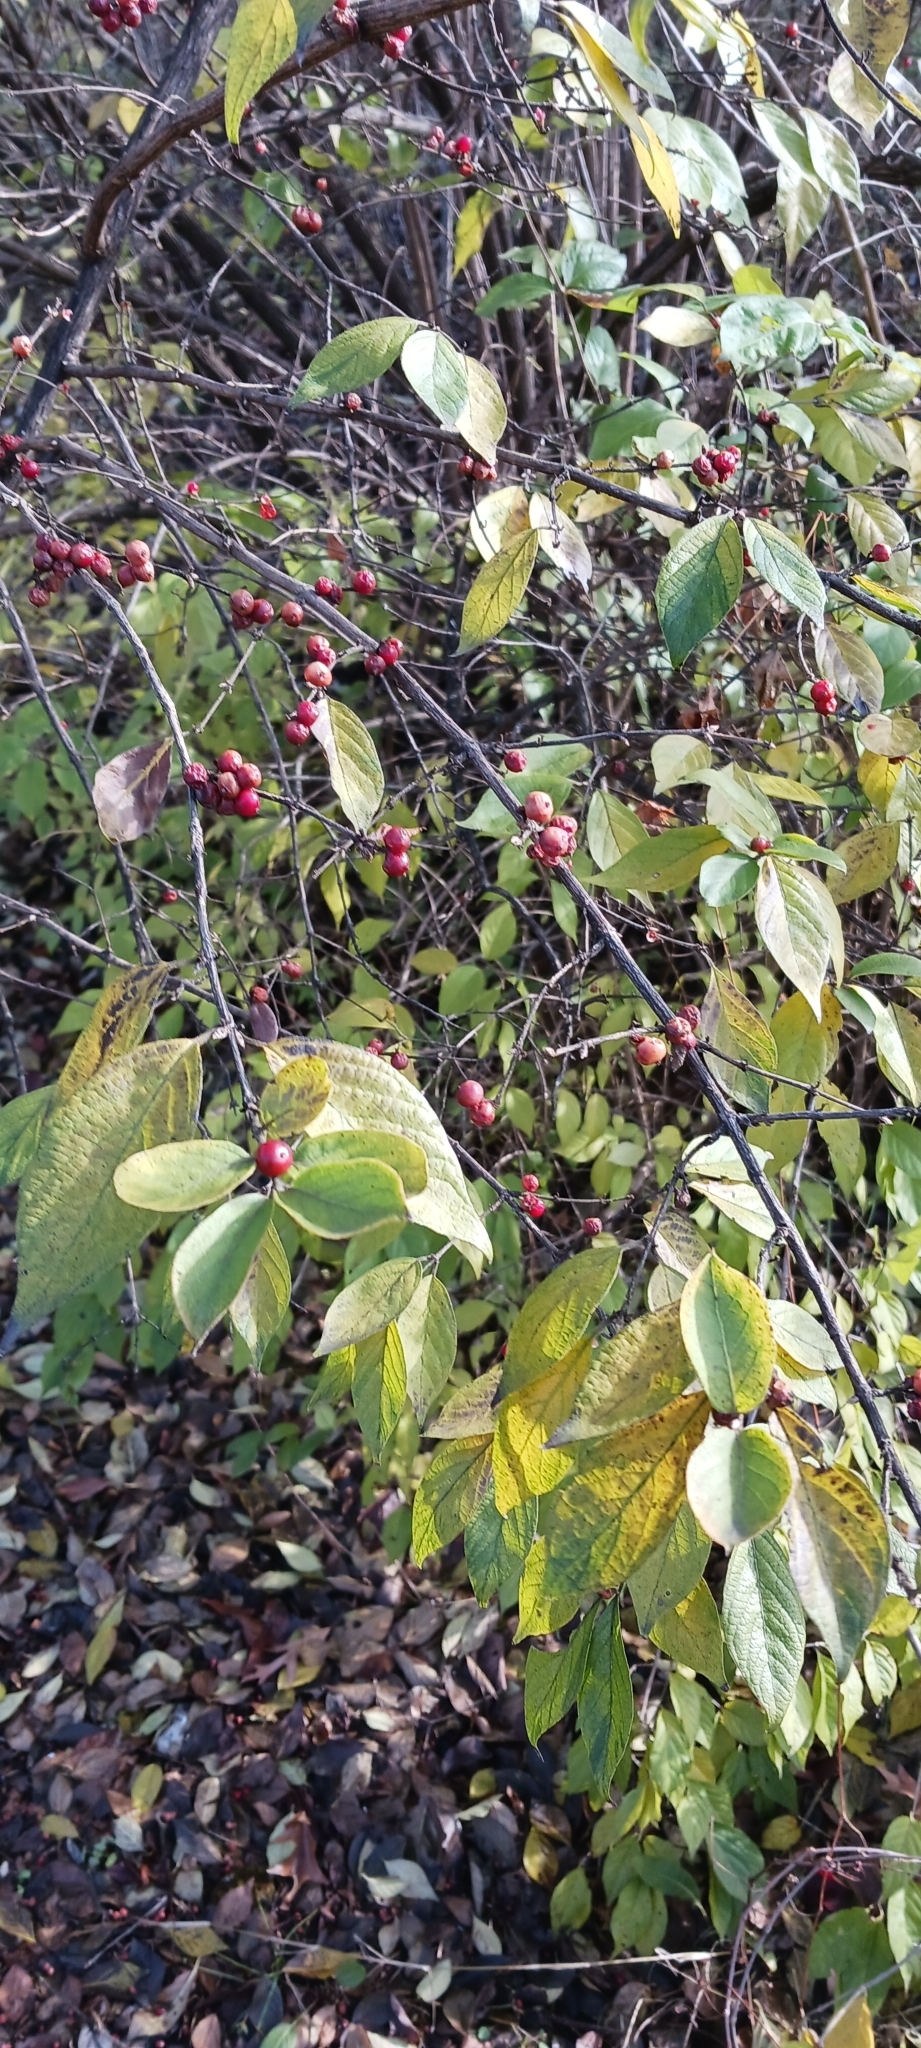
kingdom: Plantae
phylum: Tracheophyta
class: Magnoliopsida
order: Dipsacales
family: Caprifoliaceae
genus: Lonicera
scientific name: Lonicera maackii
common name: Amur honeysuckle
